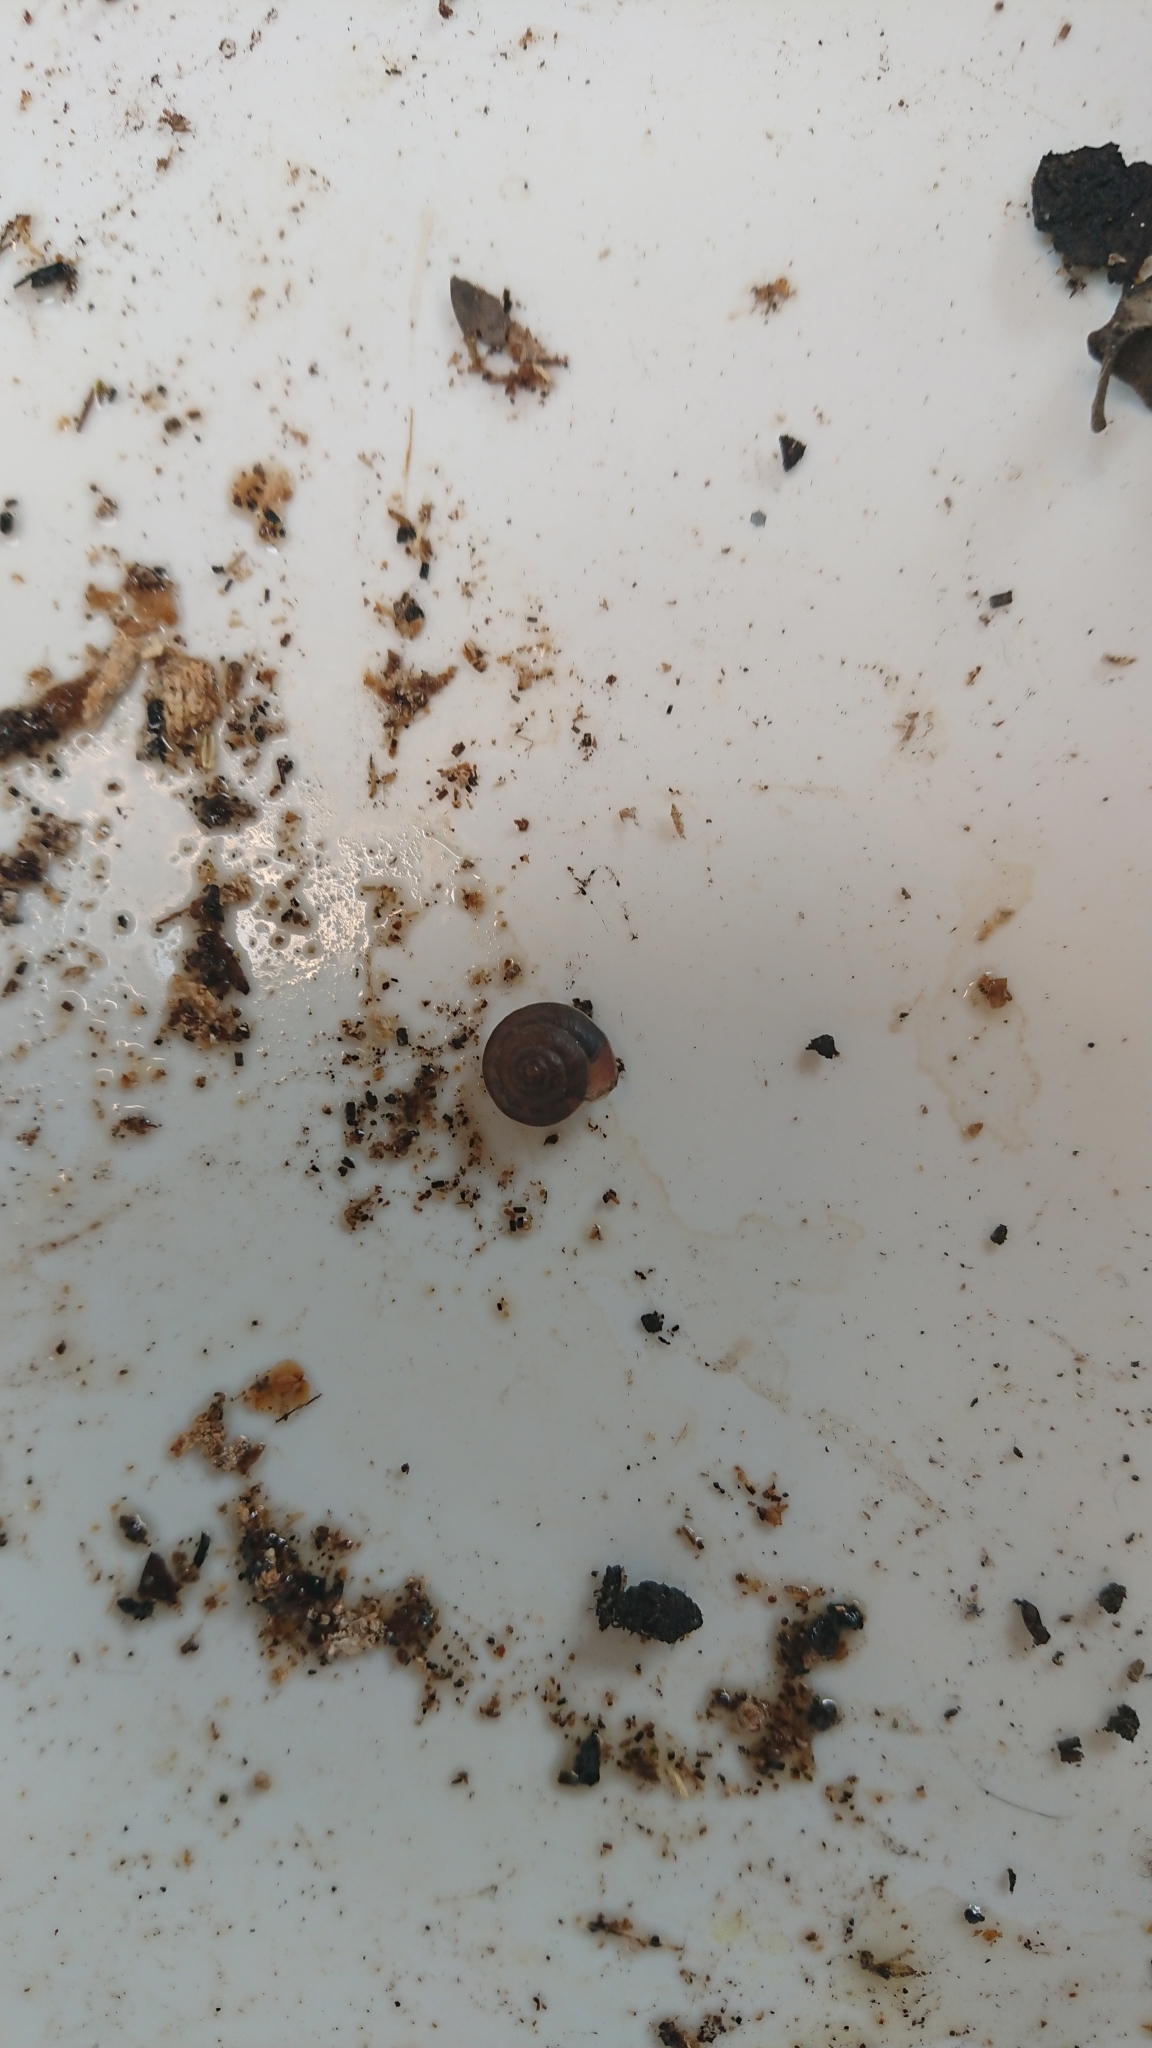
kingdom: Animalia
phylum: Mollusca
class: Gastropoda
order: Stylommatophora
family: Hygromiidae
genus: Hygromia
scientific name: Hygromia cinctella
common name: Girdled snail
